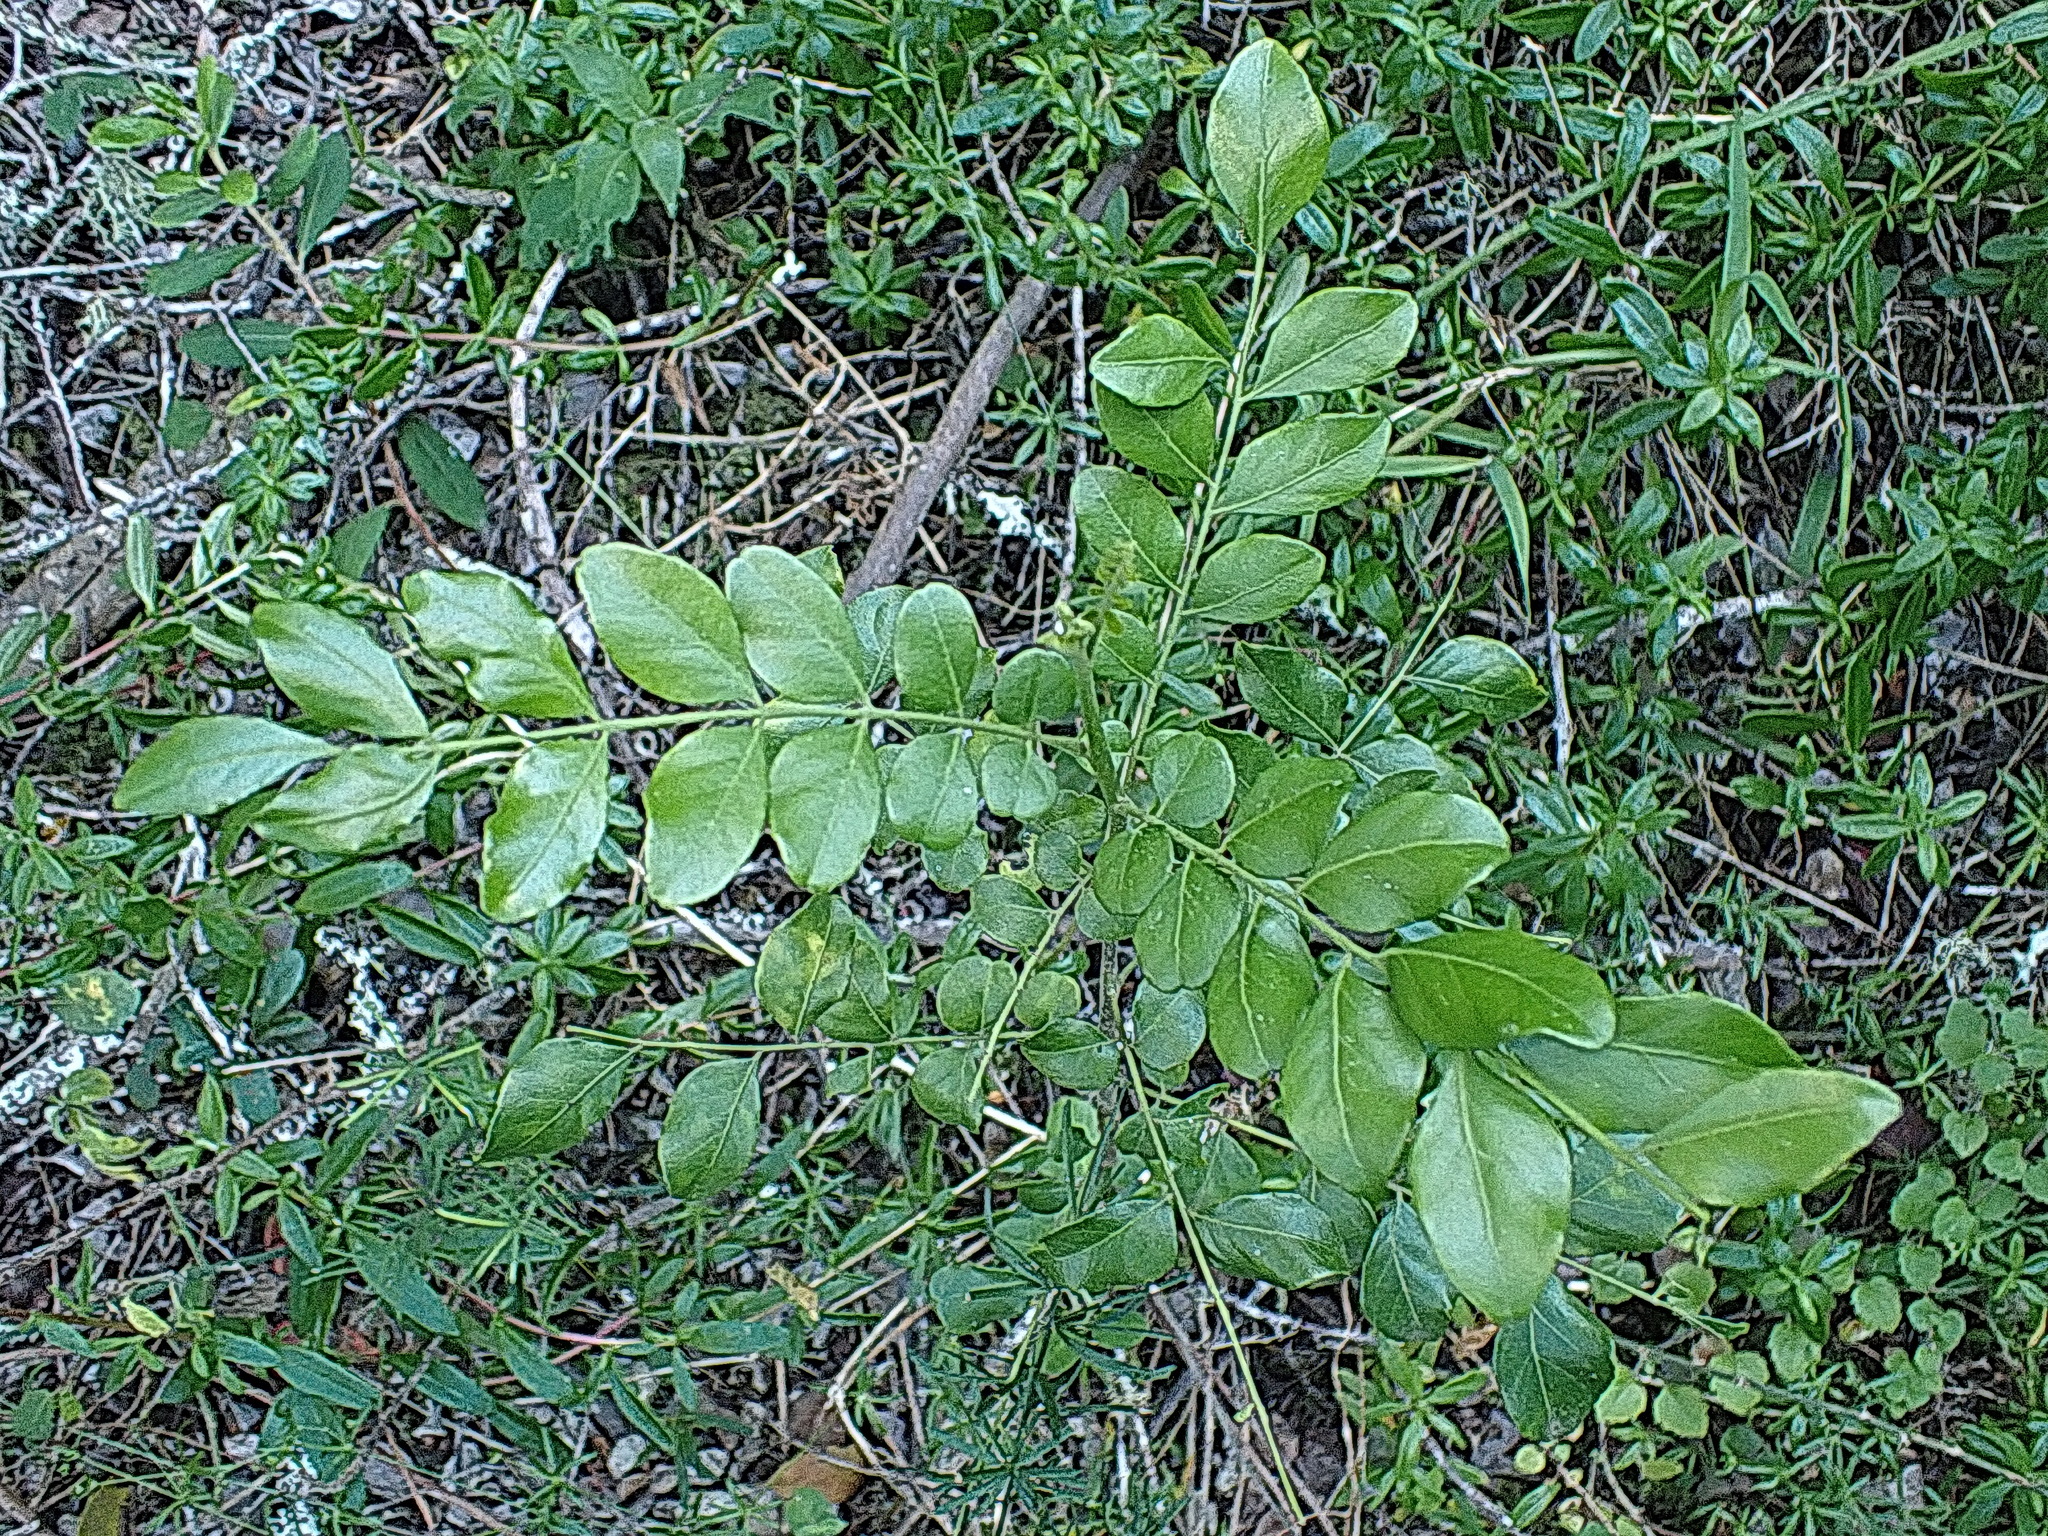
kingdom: Plantae
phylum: Tracheophyta
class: Magnoliopsida
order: Sapindales
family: Rutaceae
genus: Zanthoxylum
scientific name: Zanthoxylum capense
